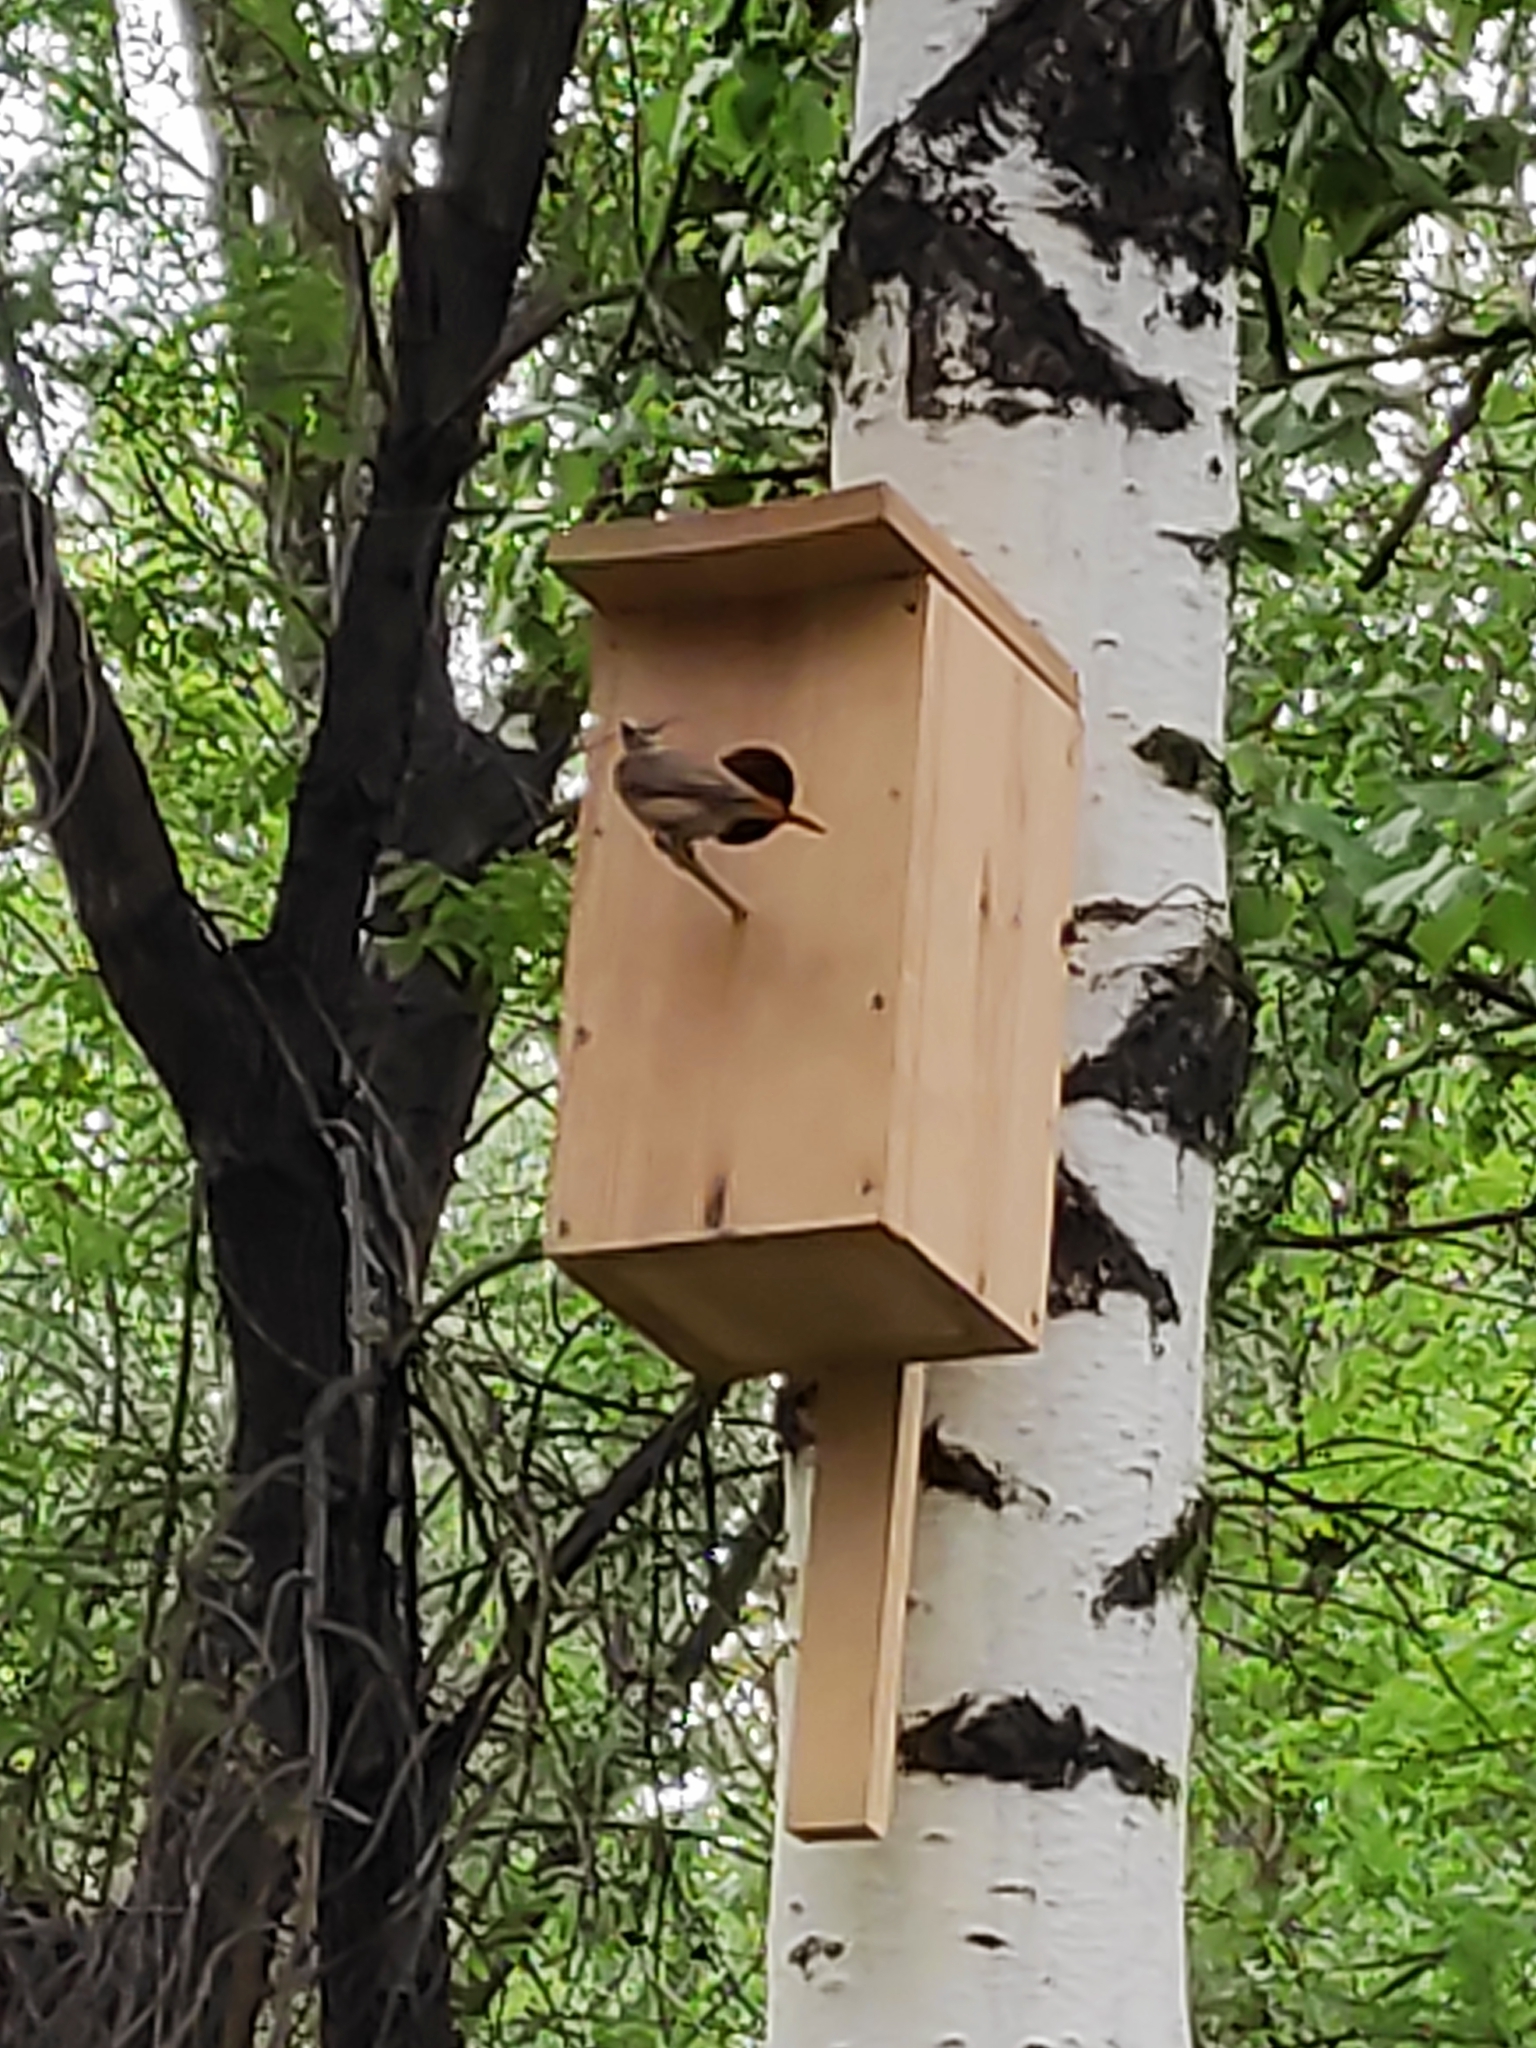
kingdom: Animalia
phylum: Chordata
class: Aves
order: Passeriformes
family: Muscicapidae
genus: Phoenicurus
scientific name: Phoenicurus phoenicurus
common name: Common redstart
